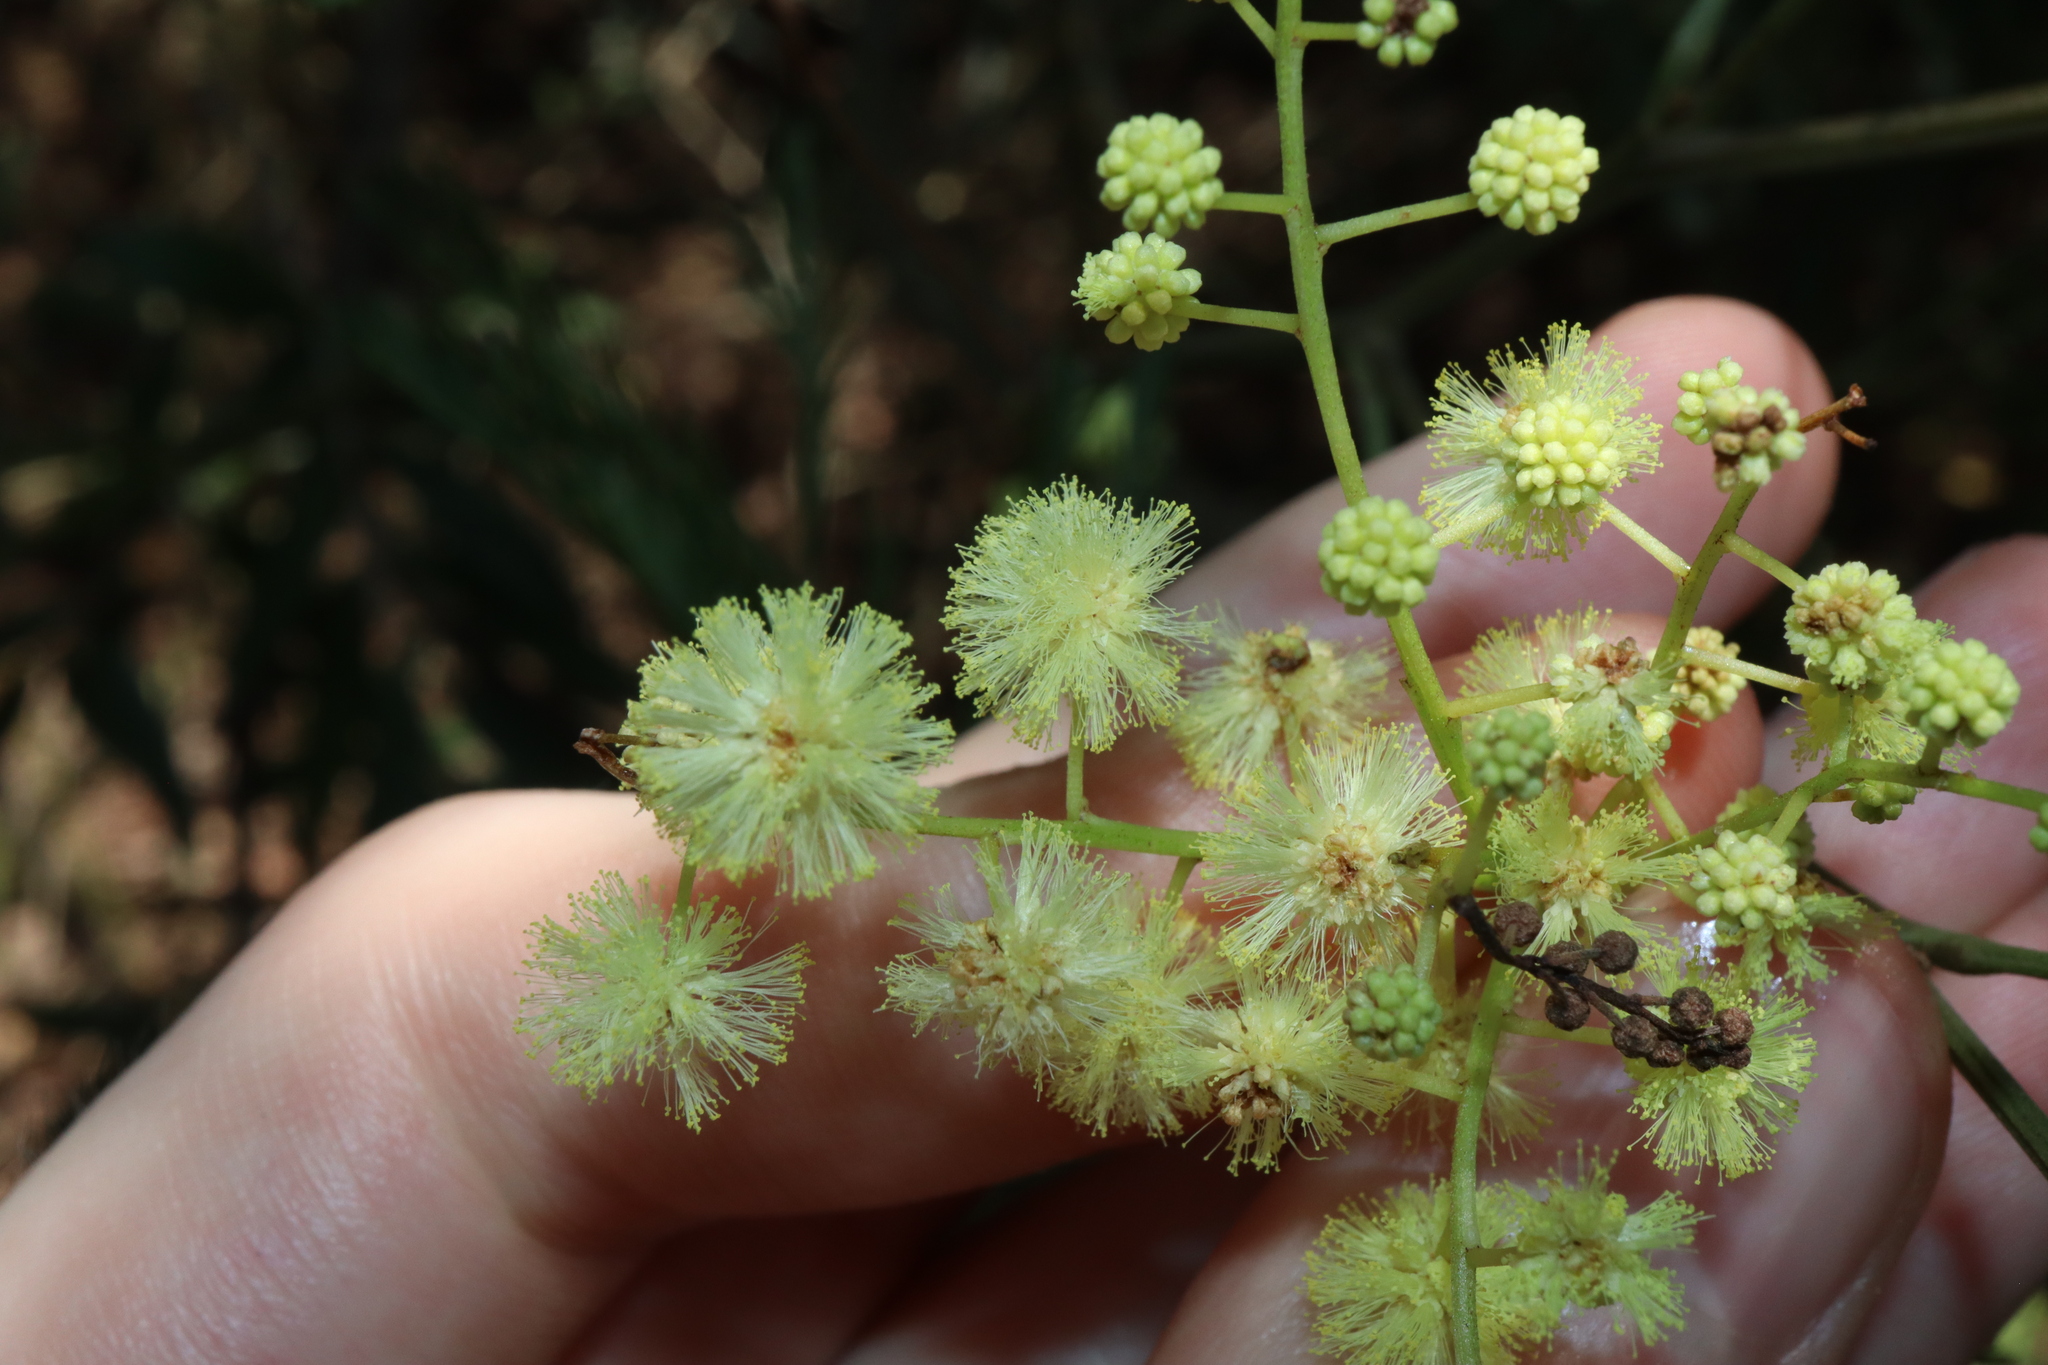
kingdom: Plantae
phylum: Tracheophyta
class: Magnoliopsida
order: Fabales
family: Fabaceae
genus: Acacia
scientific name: Acacia parramattensis
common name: Sydney green wattle
